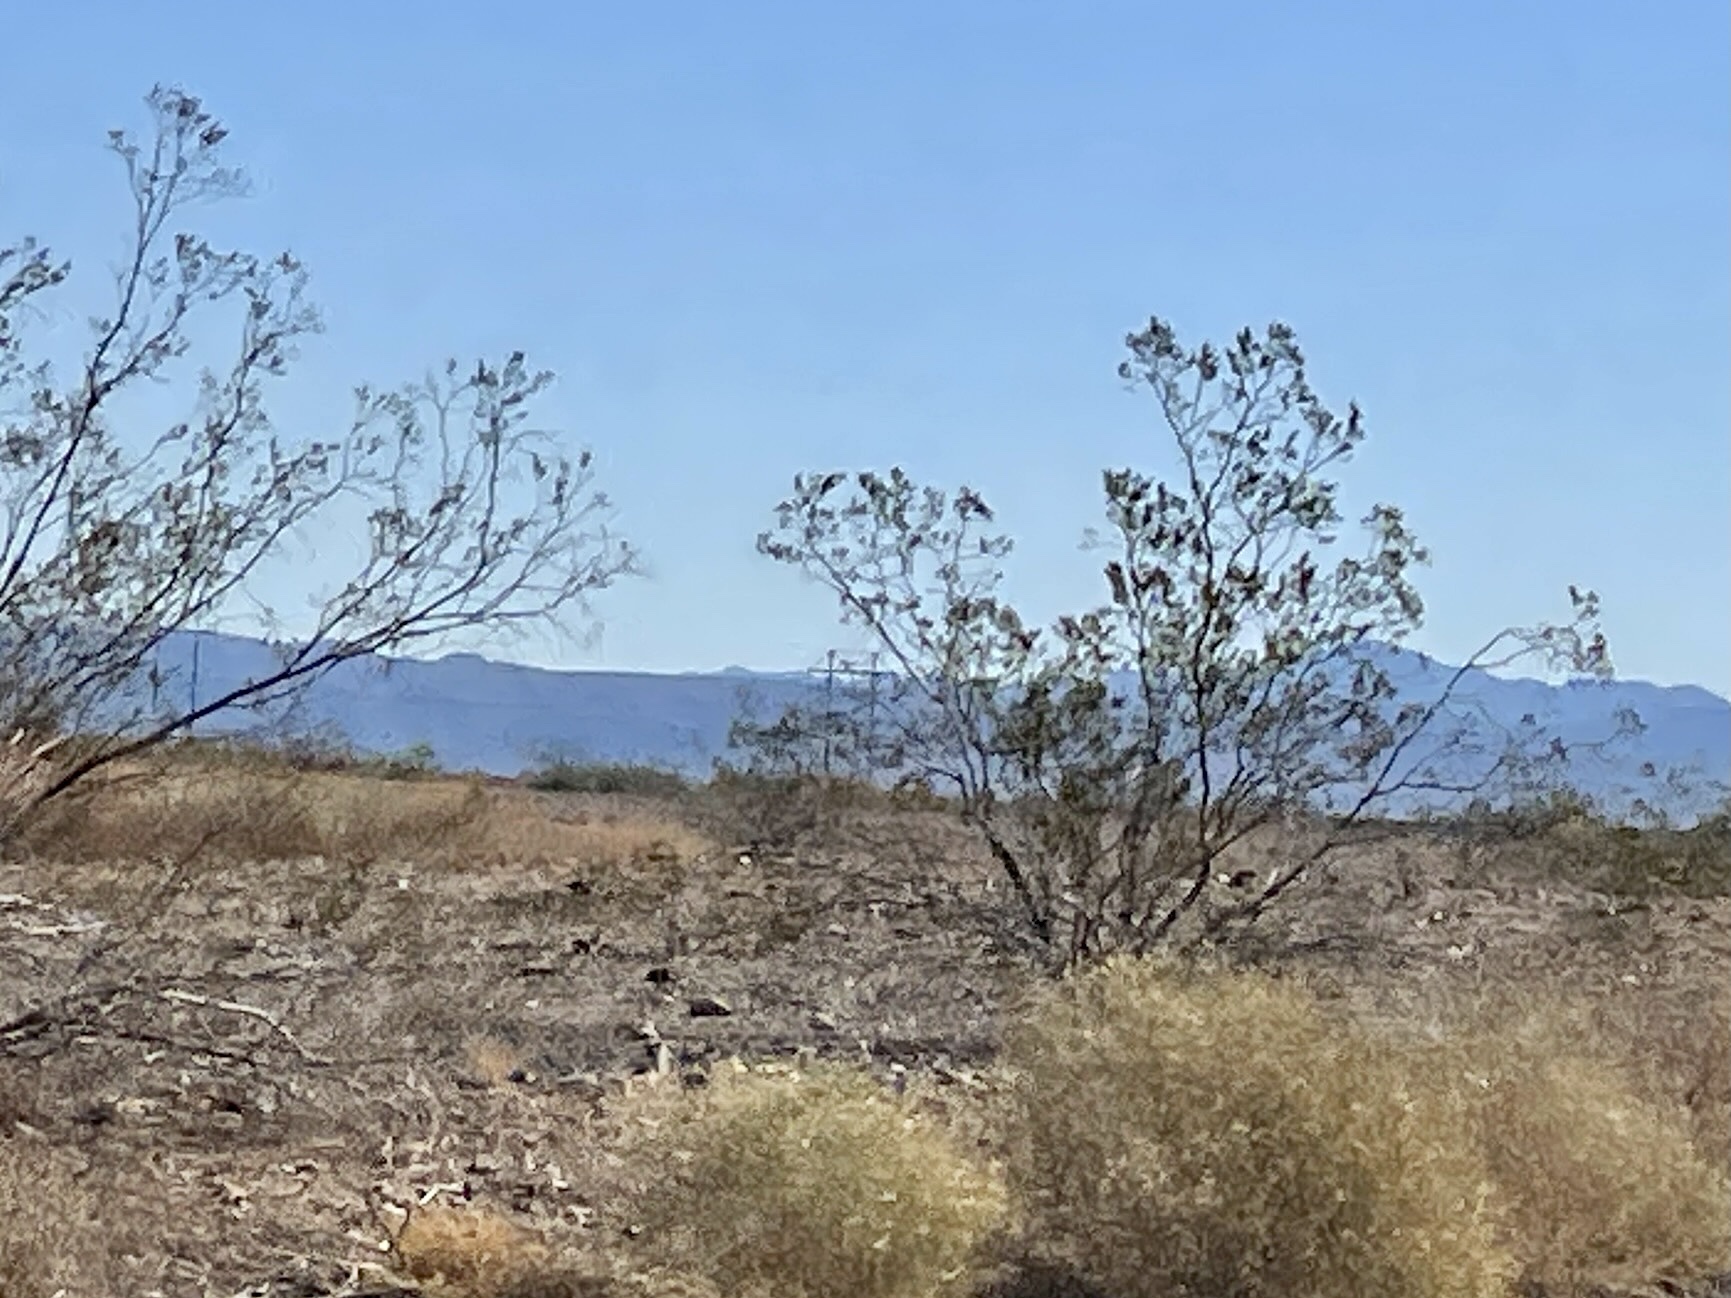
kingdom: Plantae
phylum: Tracheophyta
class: Magnoliopsida
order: Zygophyllales
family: Zygophyllaceae
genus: Larrea
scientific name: Larrea tridentata
